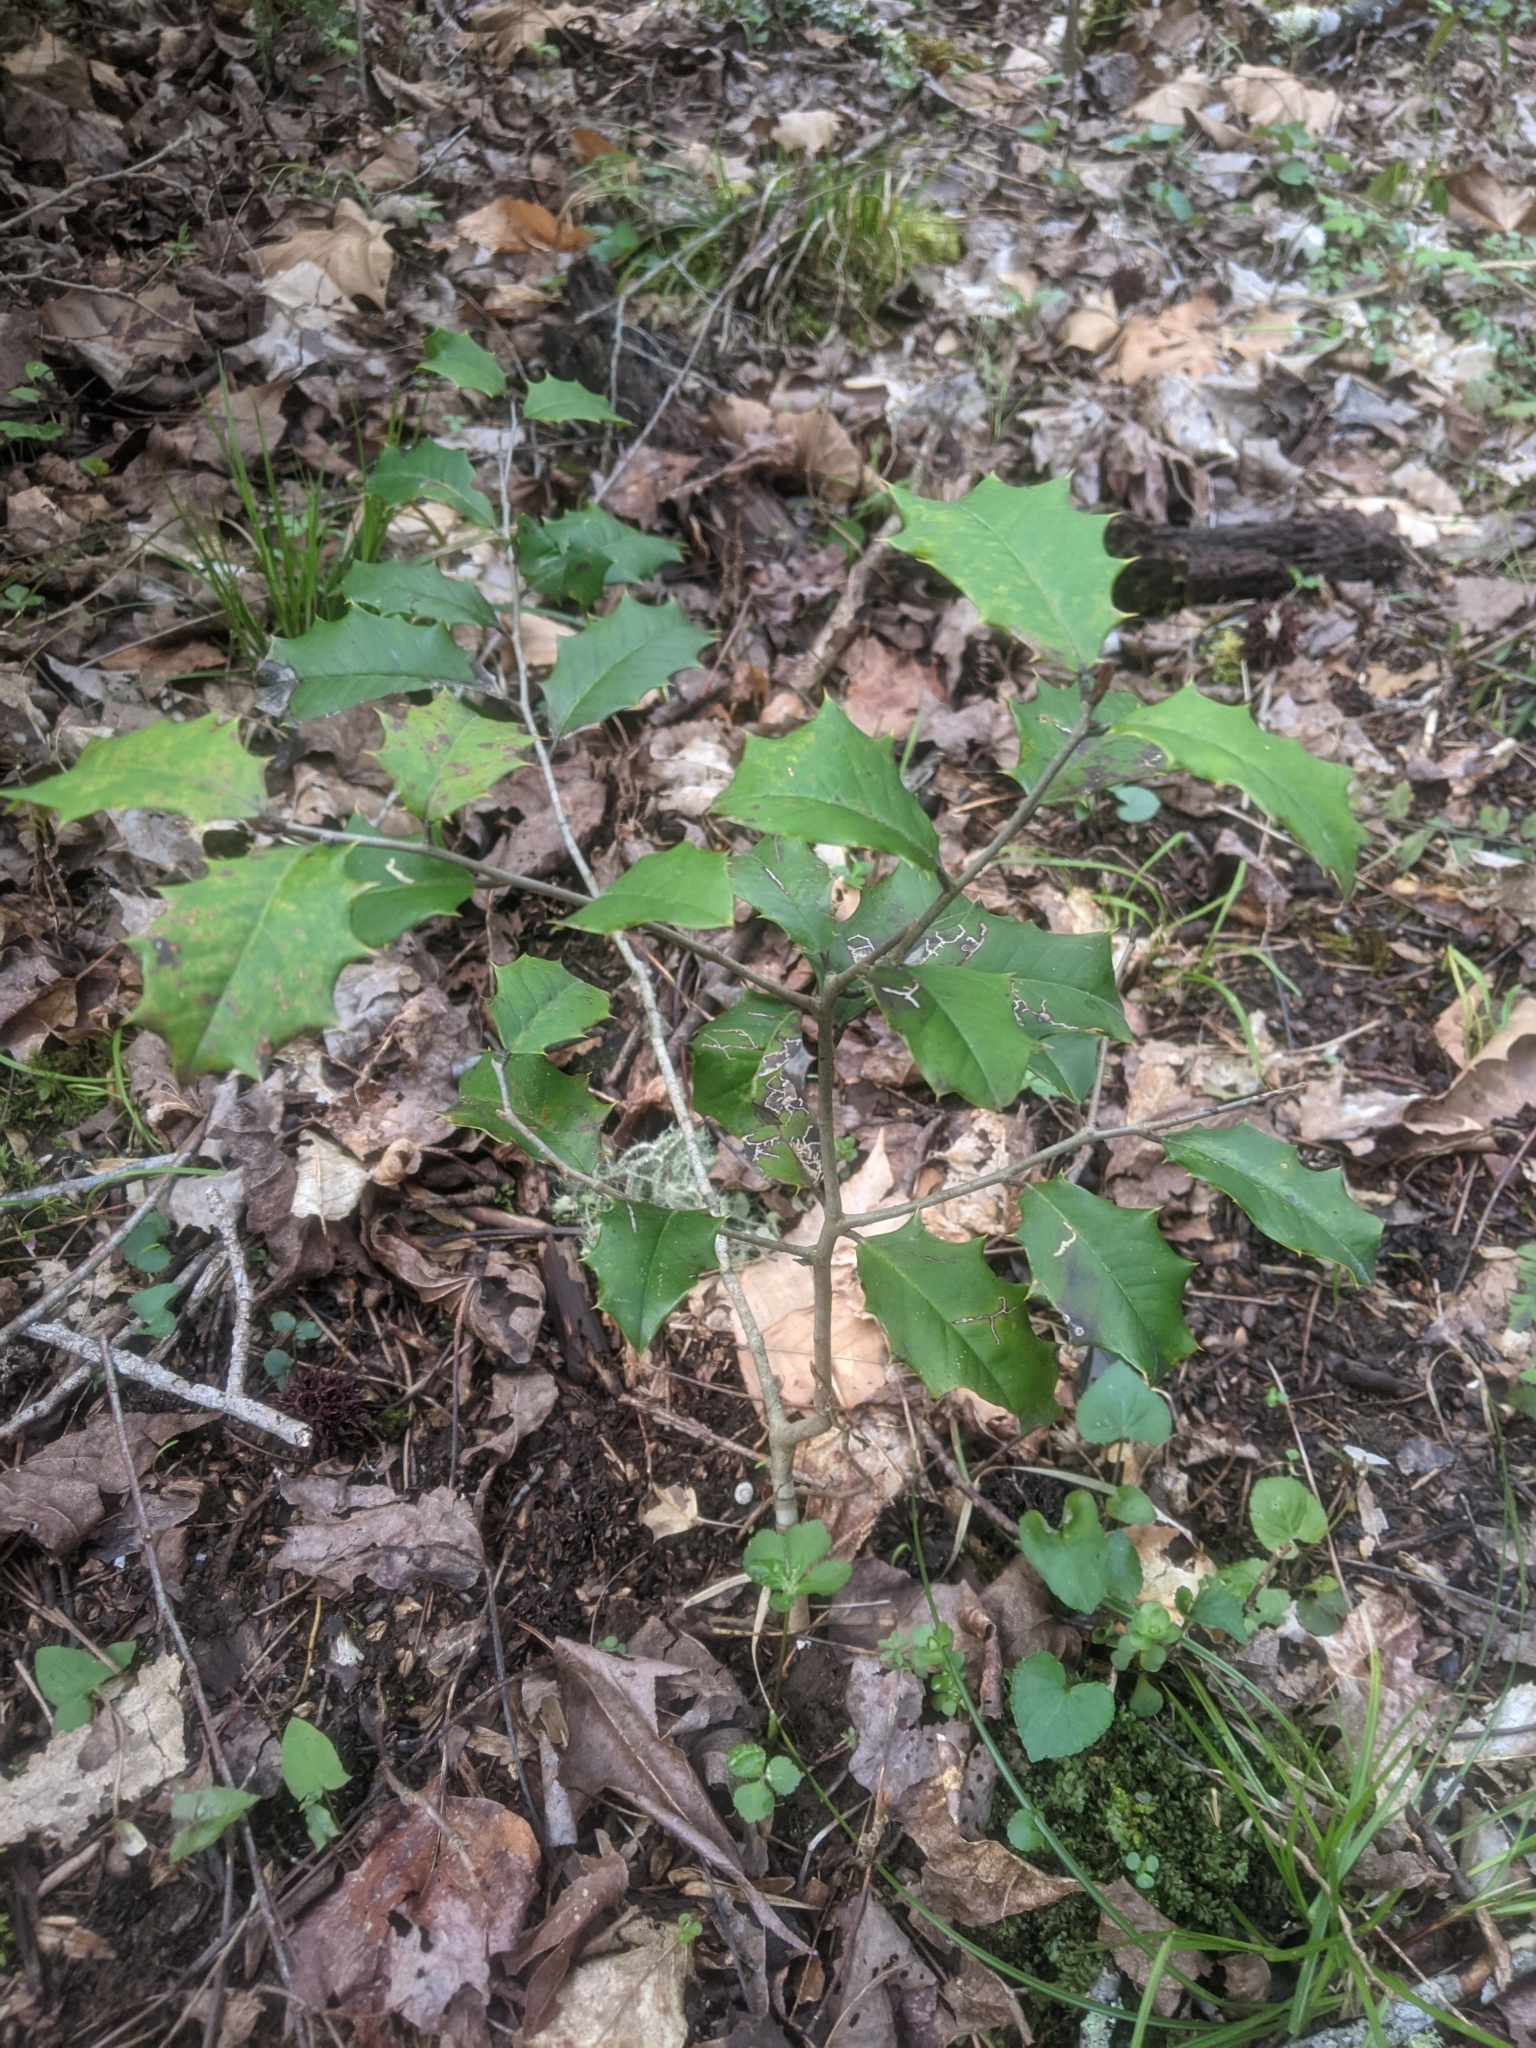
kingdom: Plantae
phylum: Tracheophyta
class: Magnoliopsida
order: Aquifoliales
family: Aquifoliaceae
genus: Ilex
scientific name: Ilex opaca
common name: American holly
